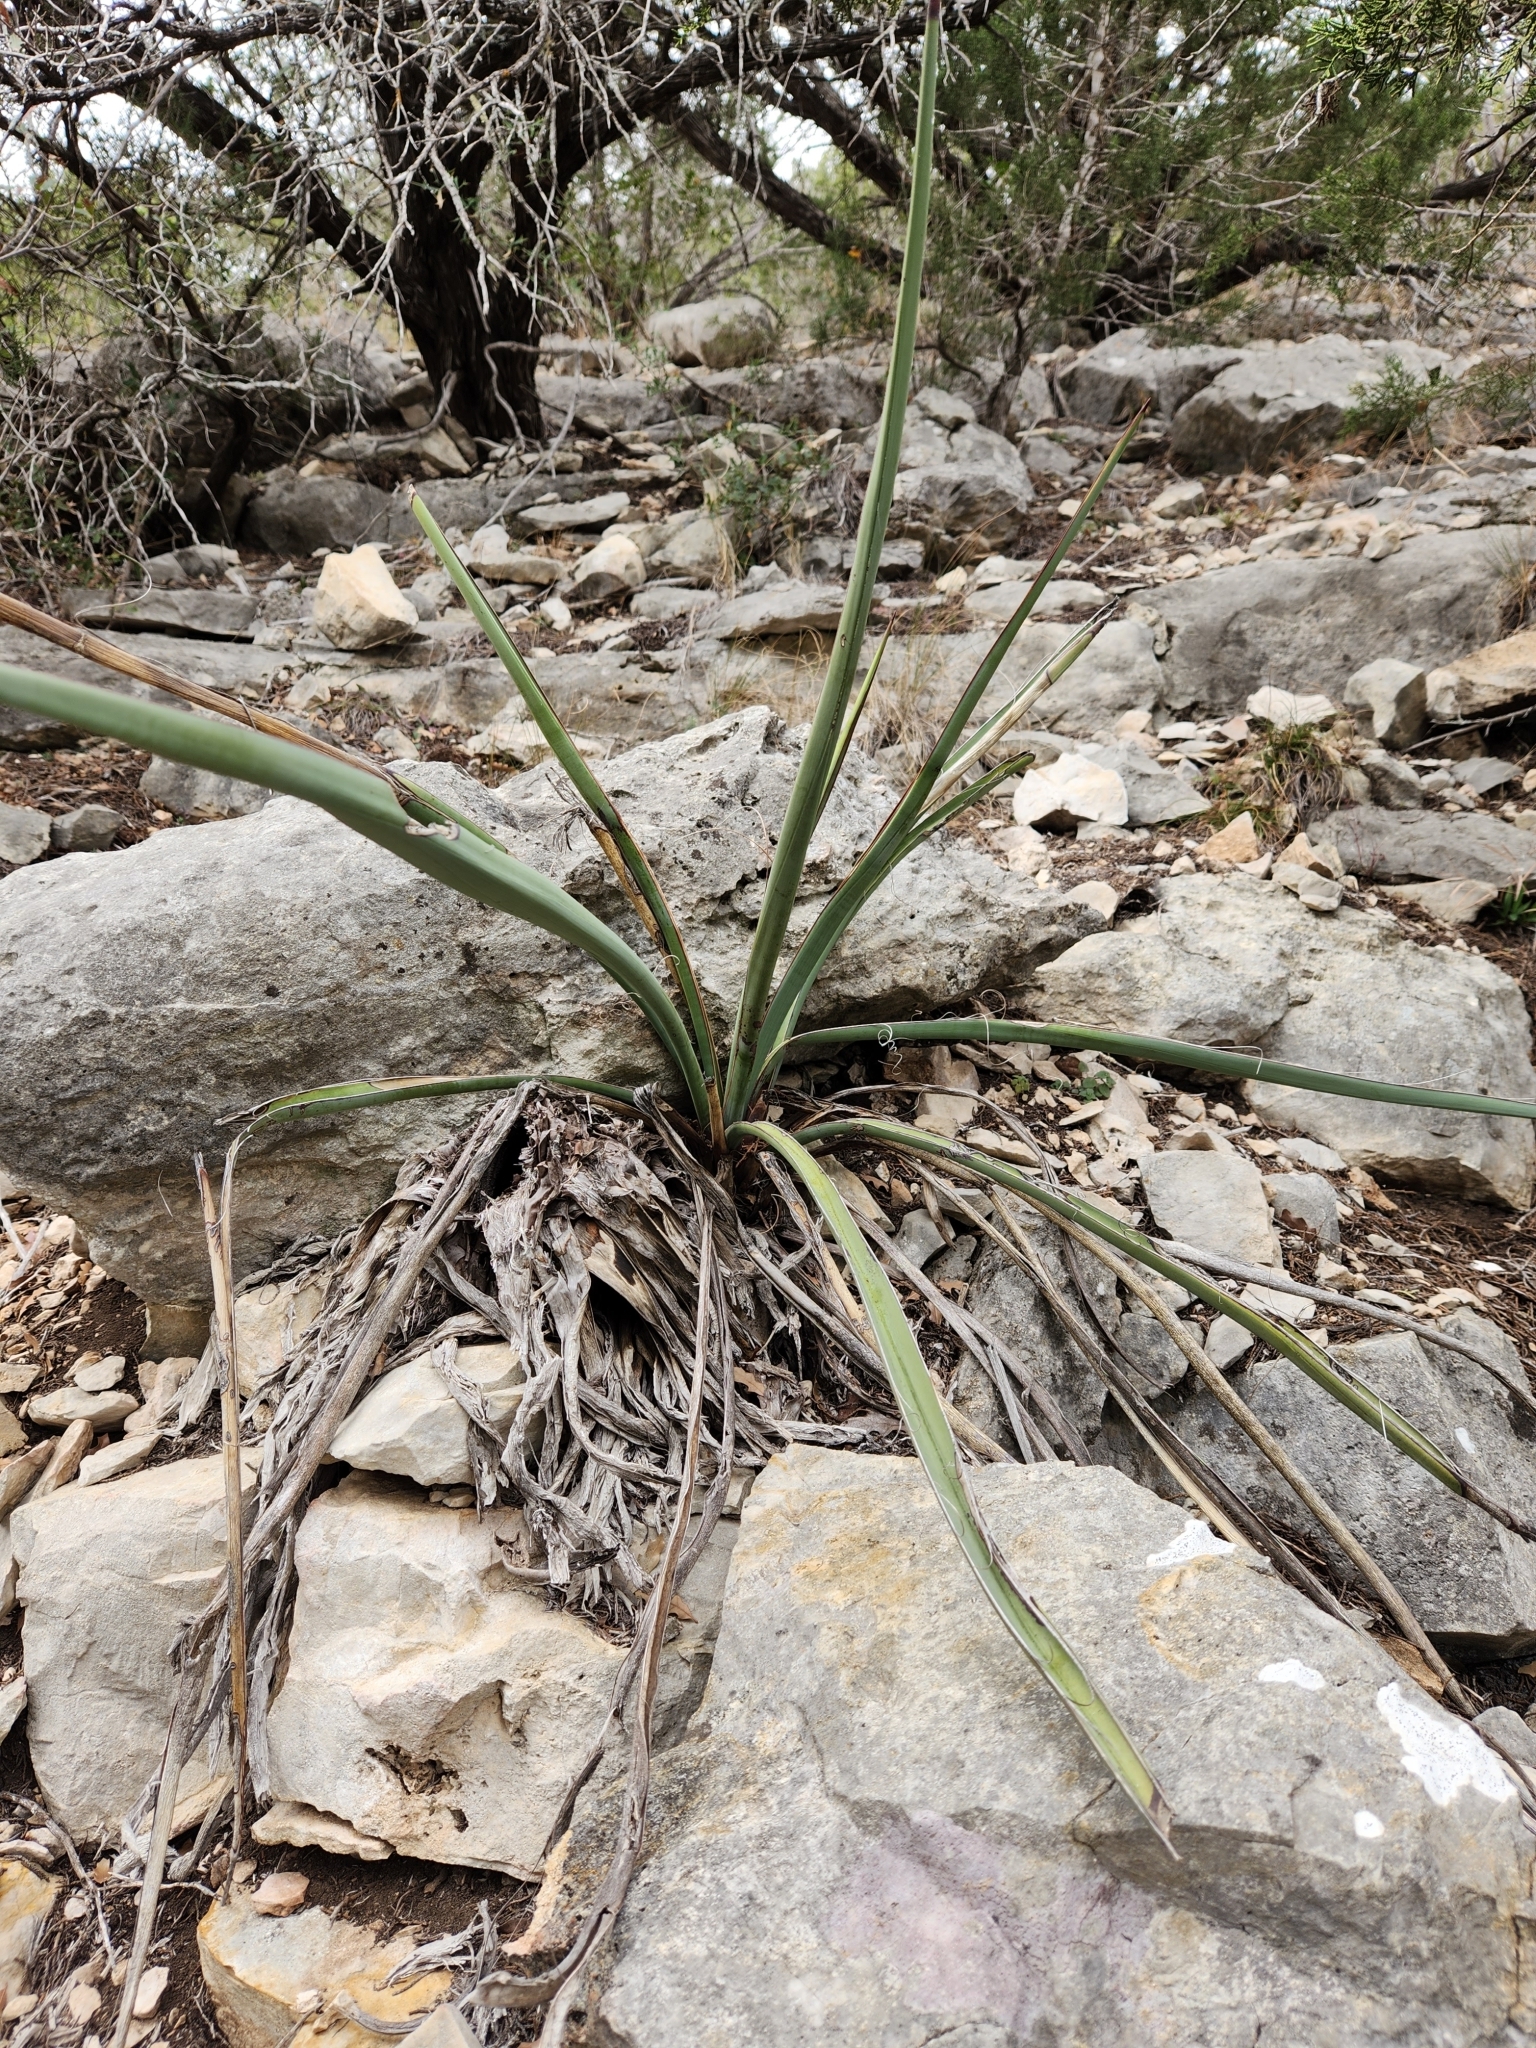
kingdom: Plantae
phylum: Tracheophyta
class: Liliopsida
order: Asparagales
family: Asparagaceae
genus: Yucca
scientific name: Yucca treculiana
